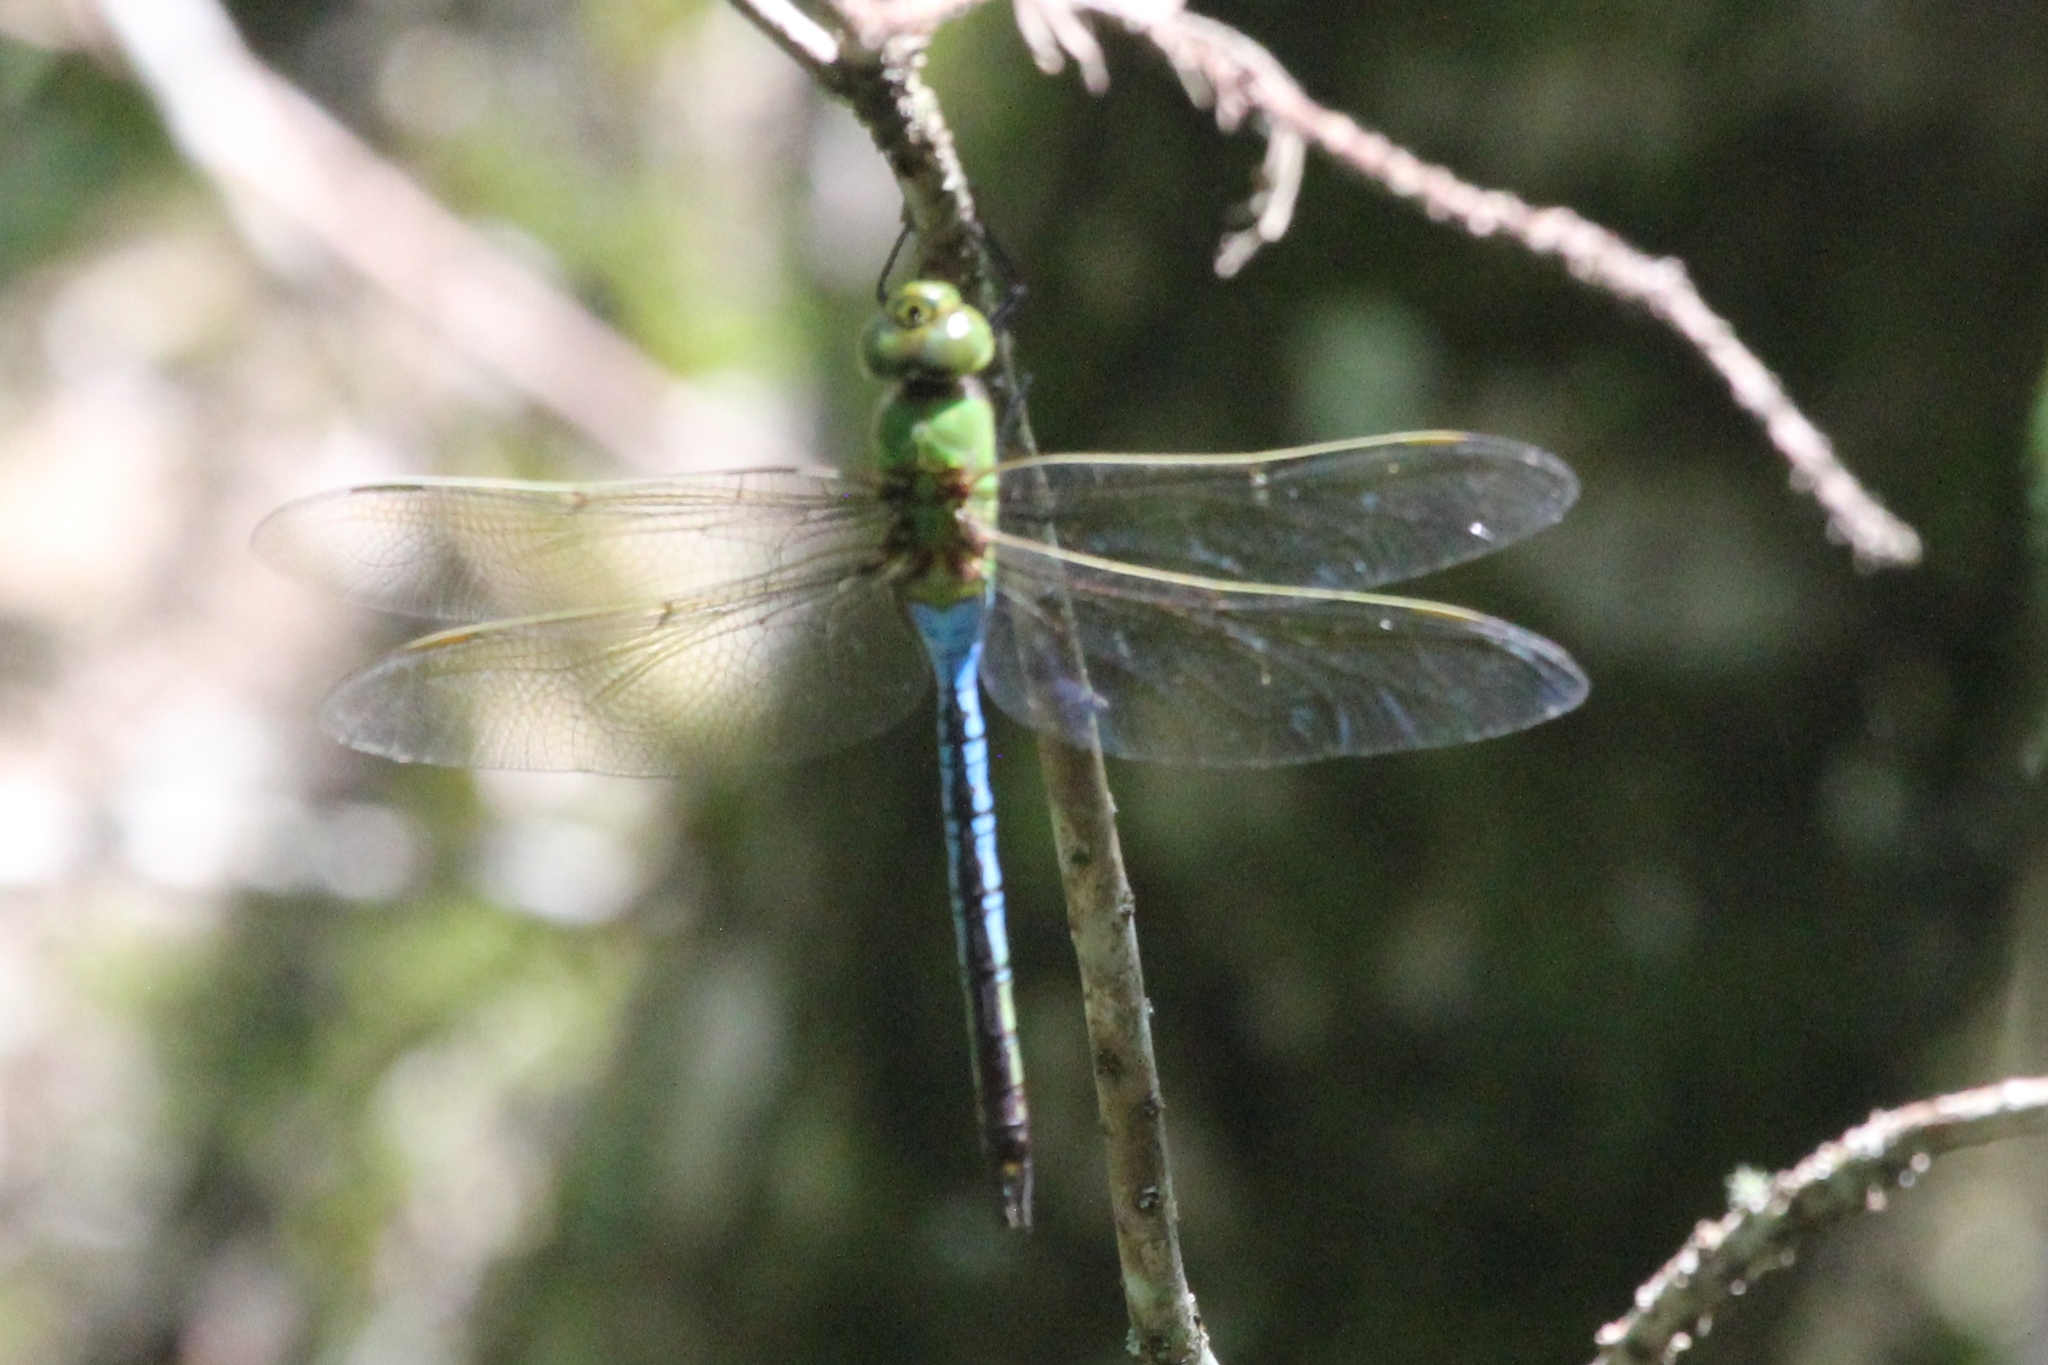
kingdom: Animalia
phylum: Arthropoda
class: Insecta
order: Odonata
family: Aeshnidae
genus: Anax
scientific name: Anax junius
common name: Common green darner
